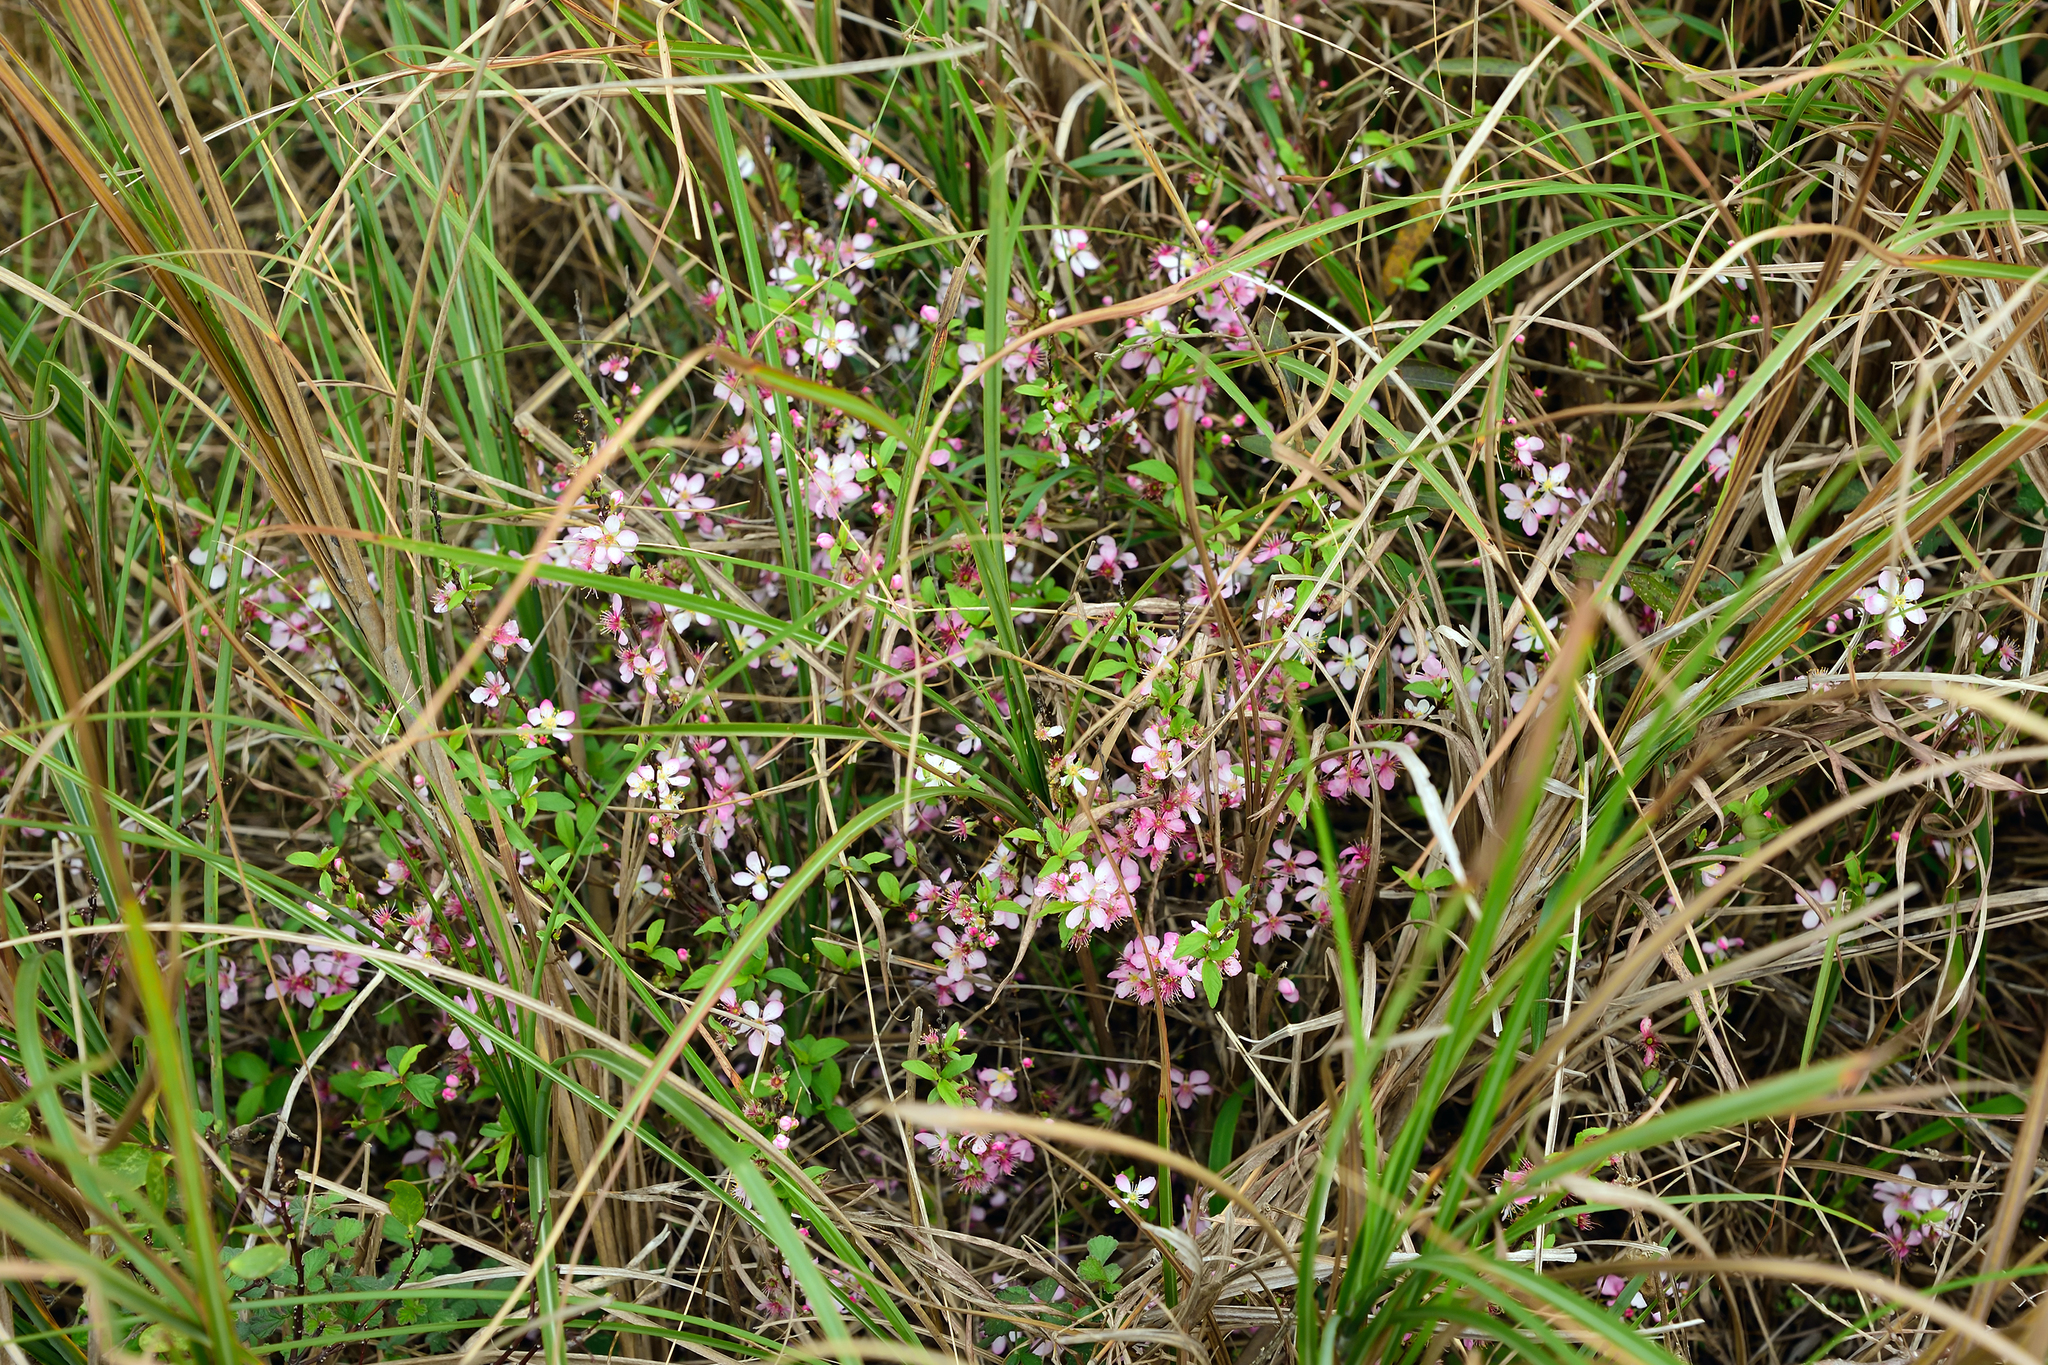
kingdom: Plantae
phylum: Tracheophyta
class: Magnoliopsida
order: Rosales
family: Rosaceae
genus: Prunus
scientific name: Prunus pogonostyla
